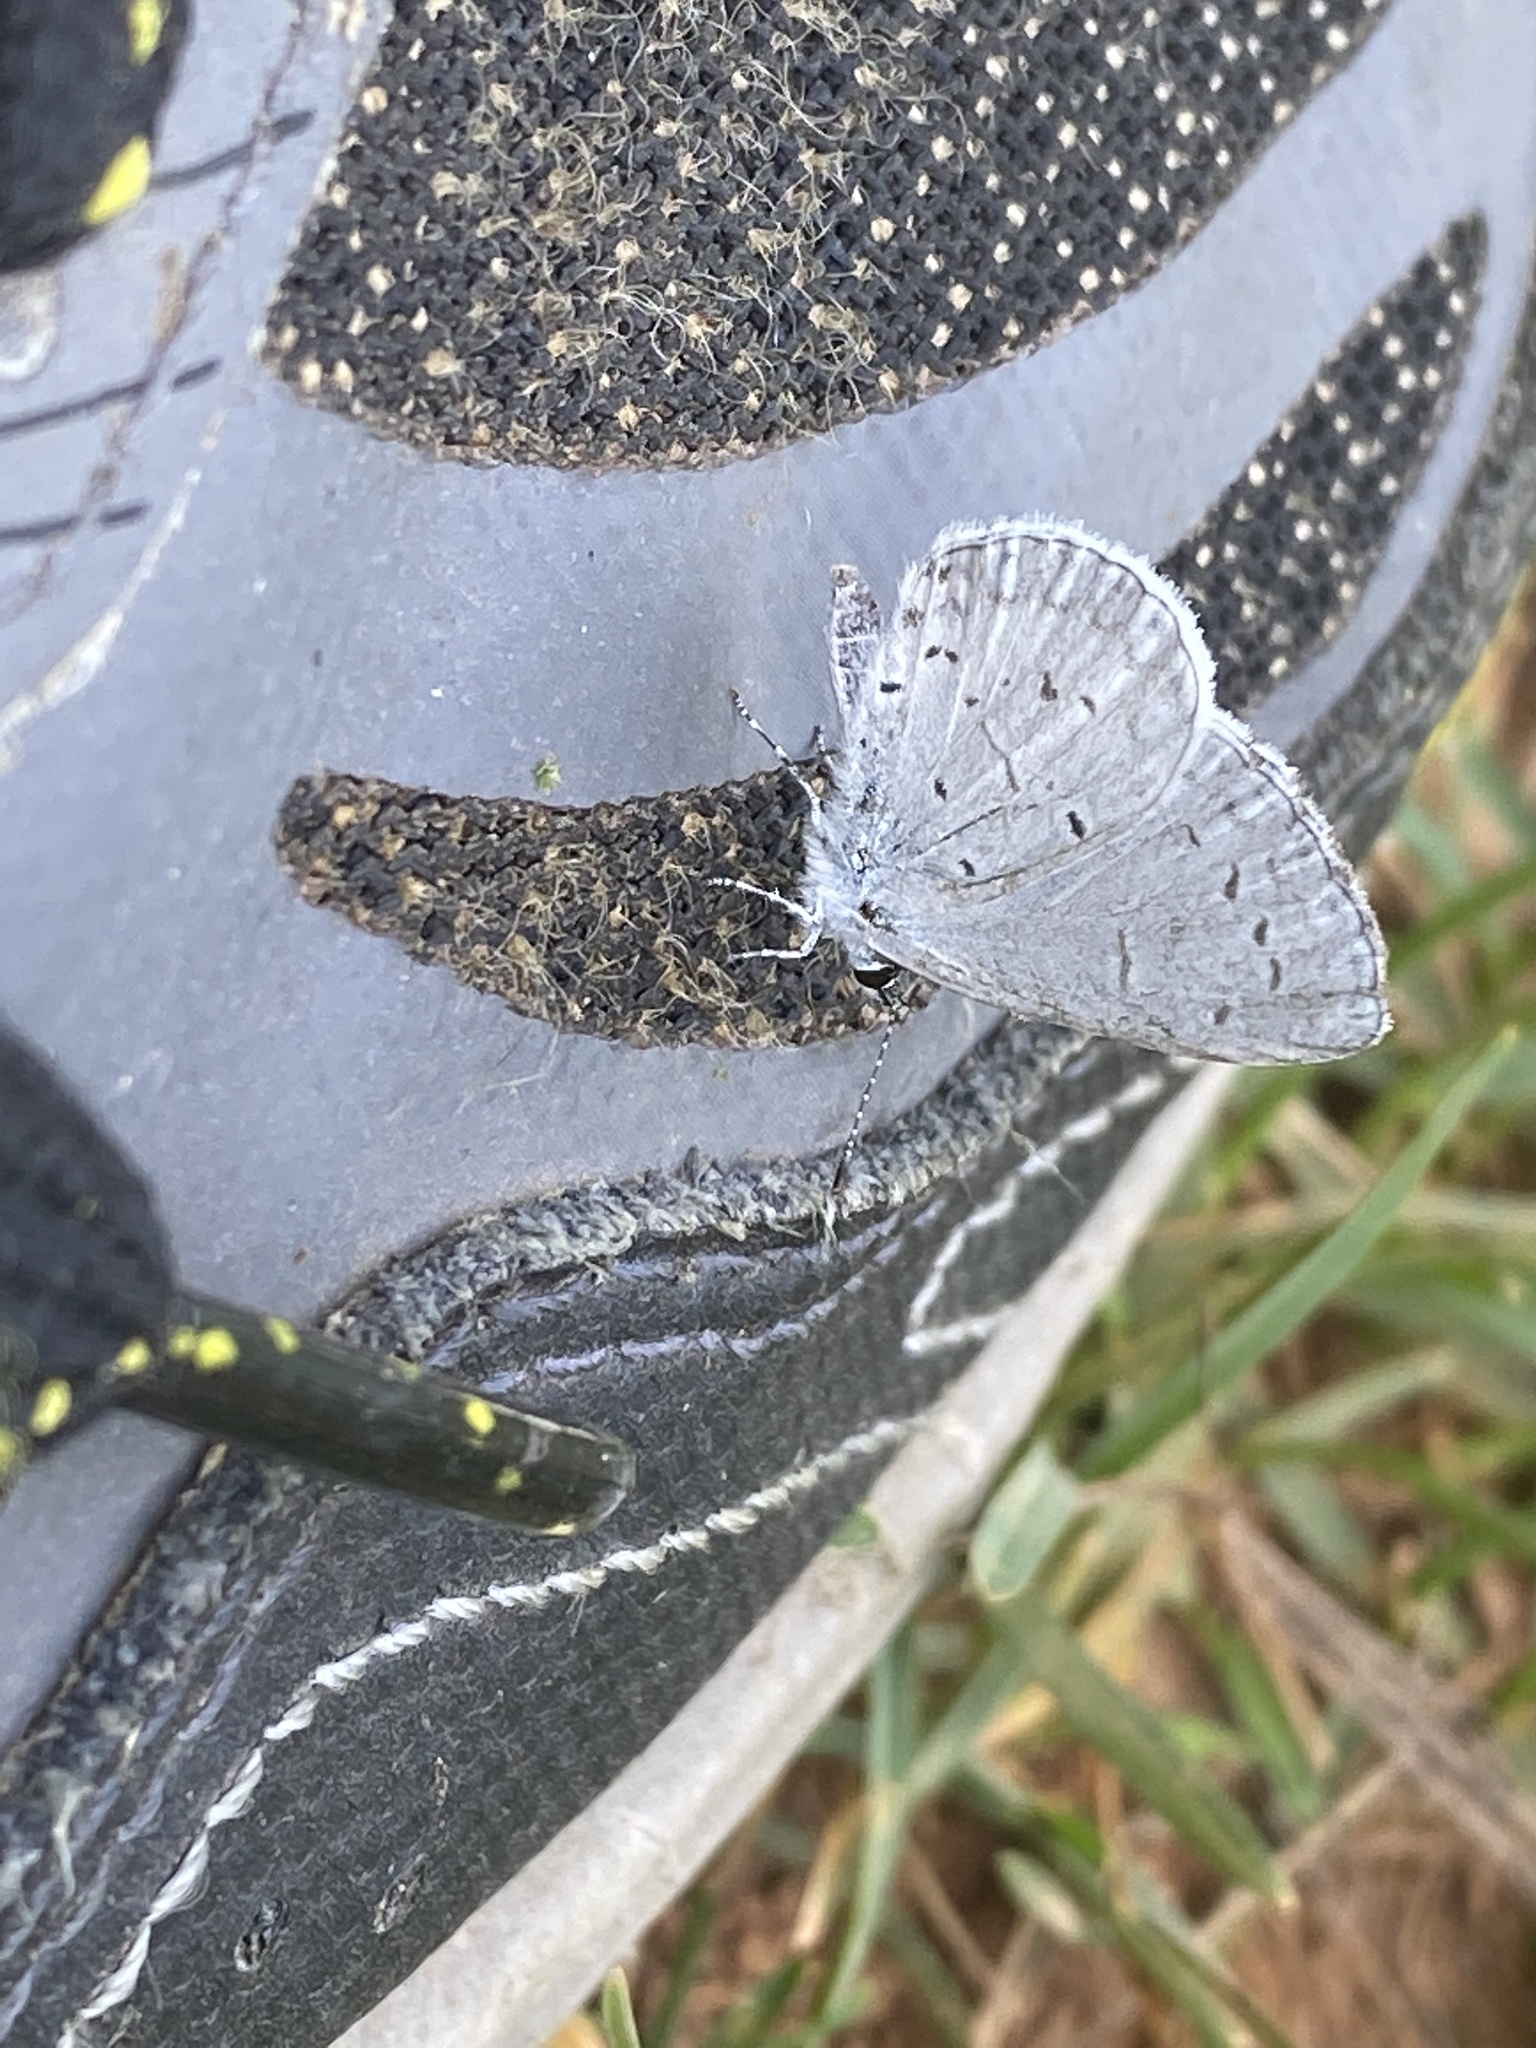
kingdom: Animalia
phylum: Arthropoda
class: Insecta
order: Lepidoptera
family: Lycaenidae
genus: Cyaniris
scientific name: Cyaniris neglecta
